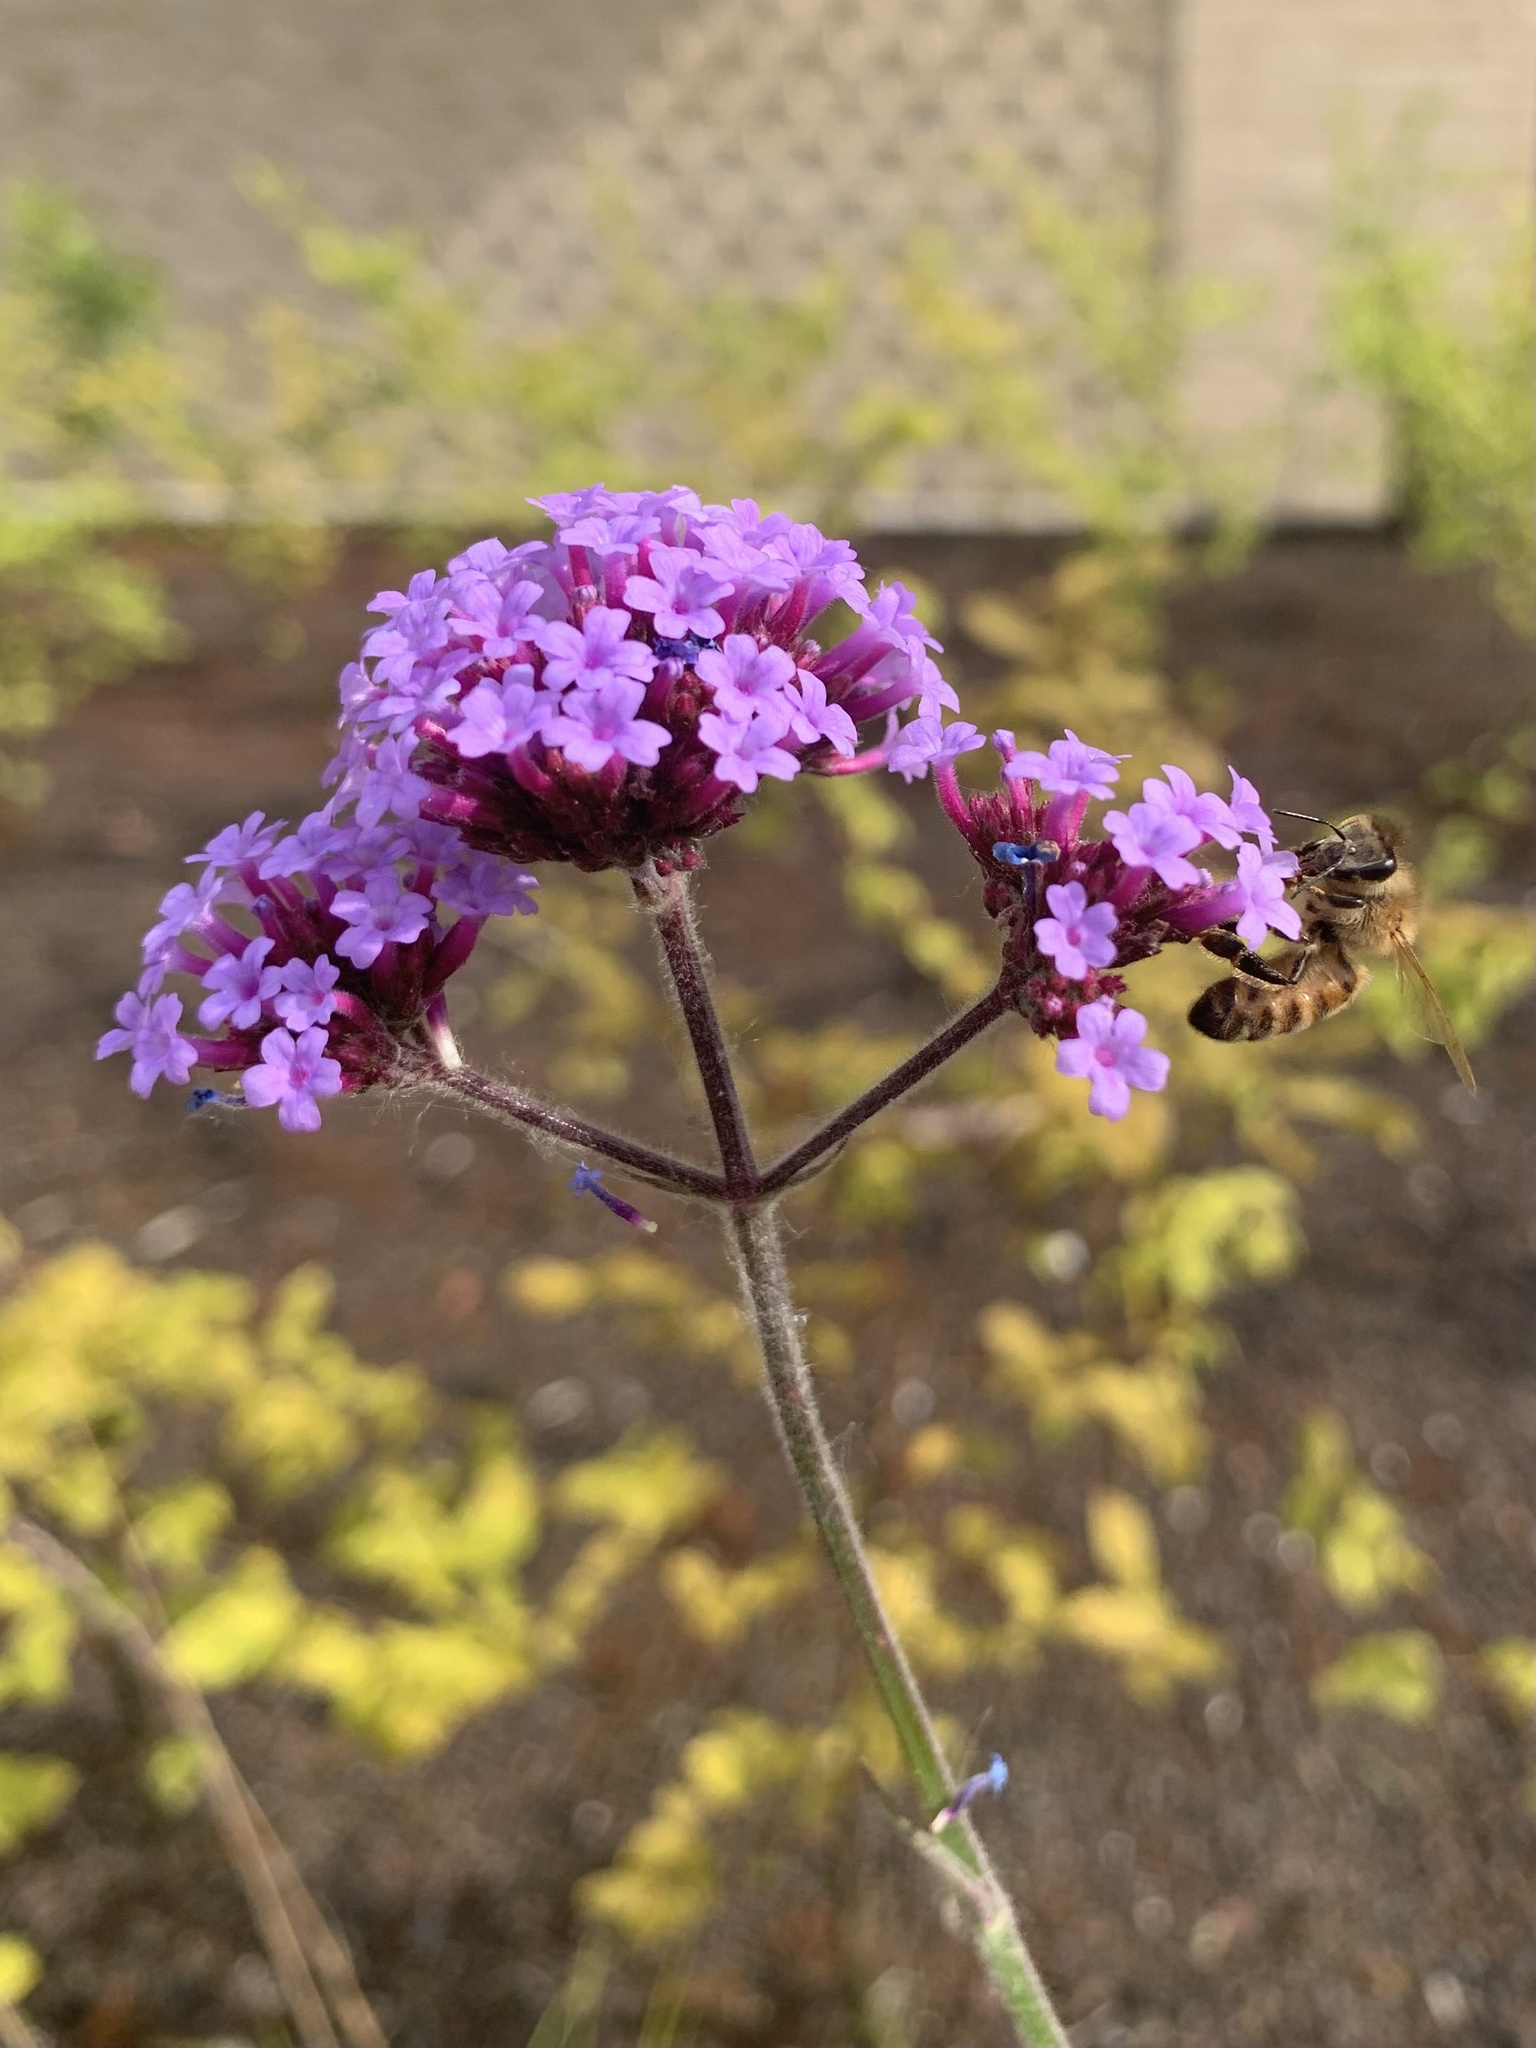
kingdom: Animalia
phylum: Arthropoda
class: Insecta
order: Hymenoptera
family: Apidae
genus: Apis
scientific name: Apis mellifera
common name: Honey bee
